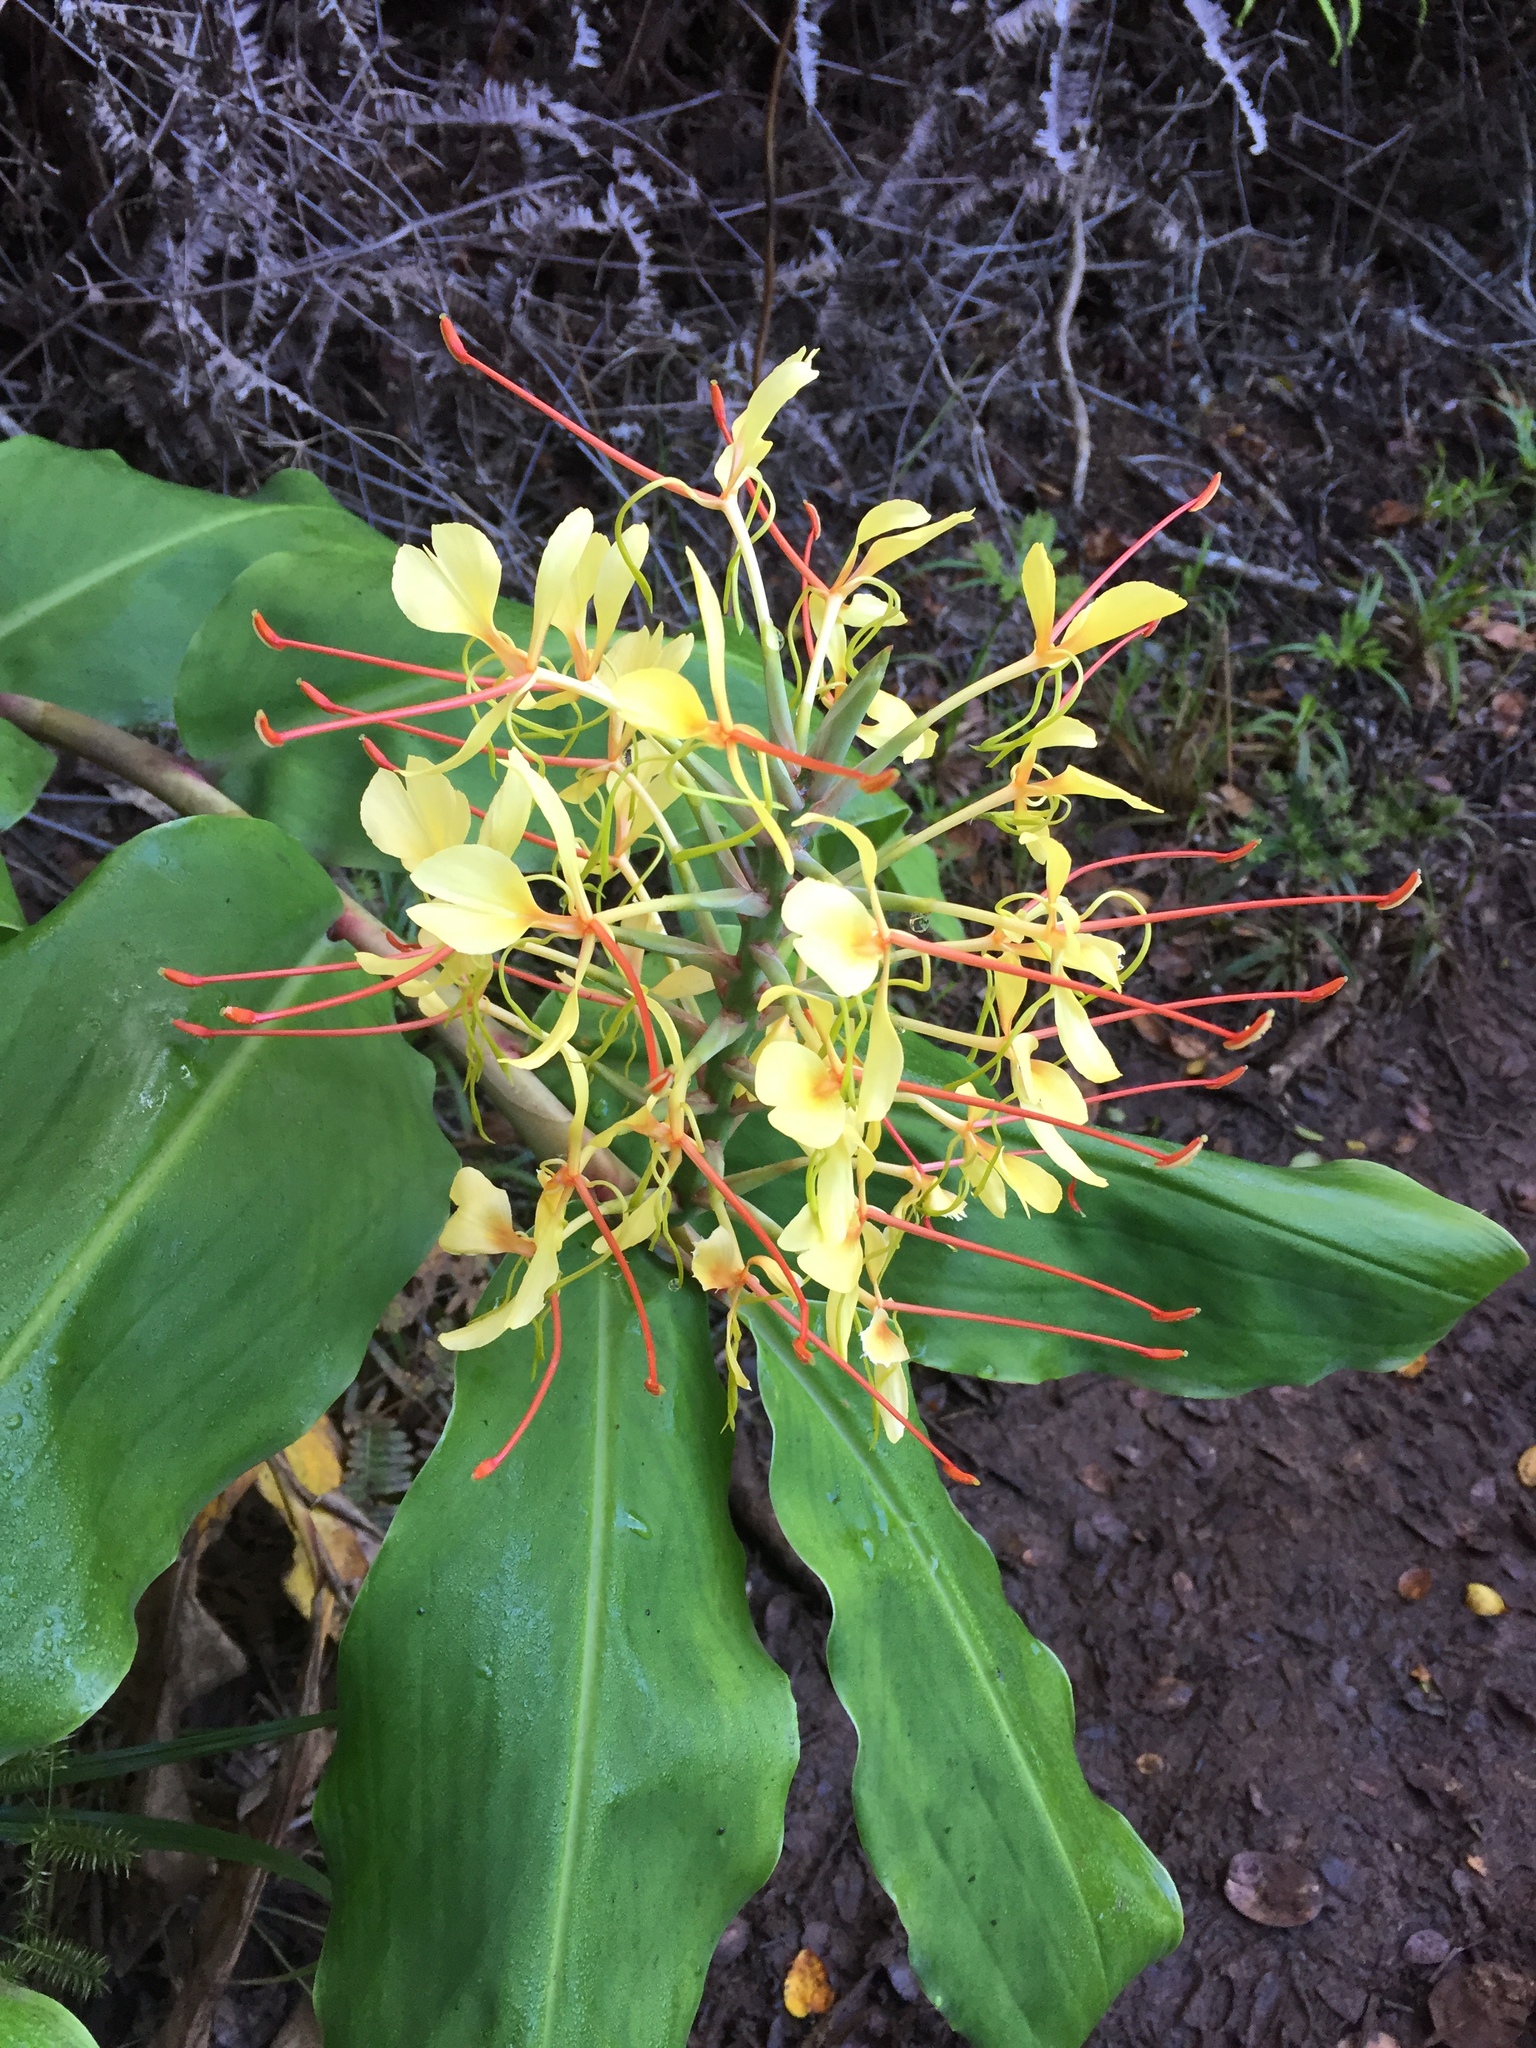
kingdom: Plantae
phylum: Tracheophyta
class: Liliopsida
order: Zingiberales
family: Zingiberaceae
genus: Hedychium
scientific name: Hedychium gardnerianum
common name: Himalayan ginger
